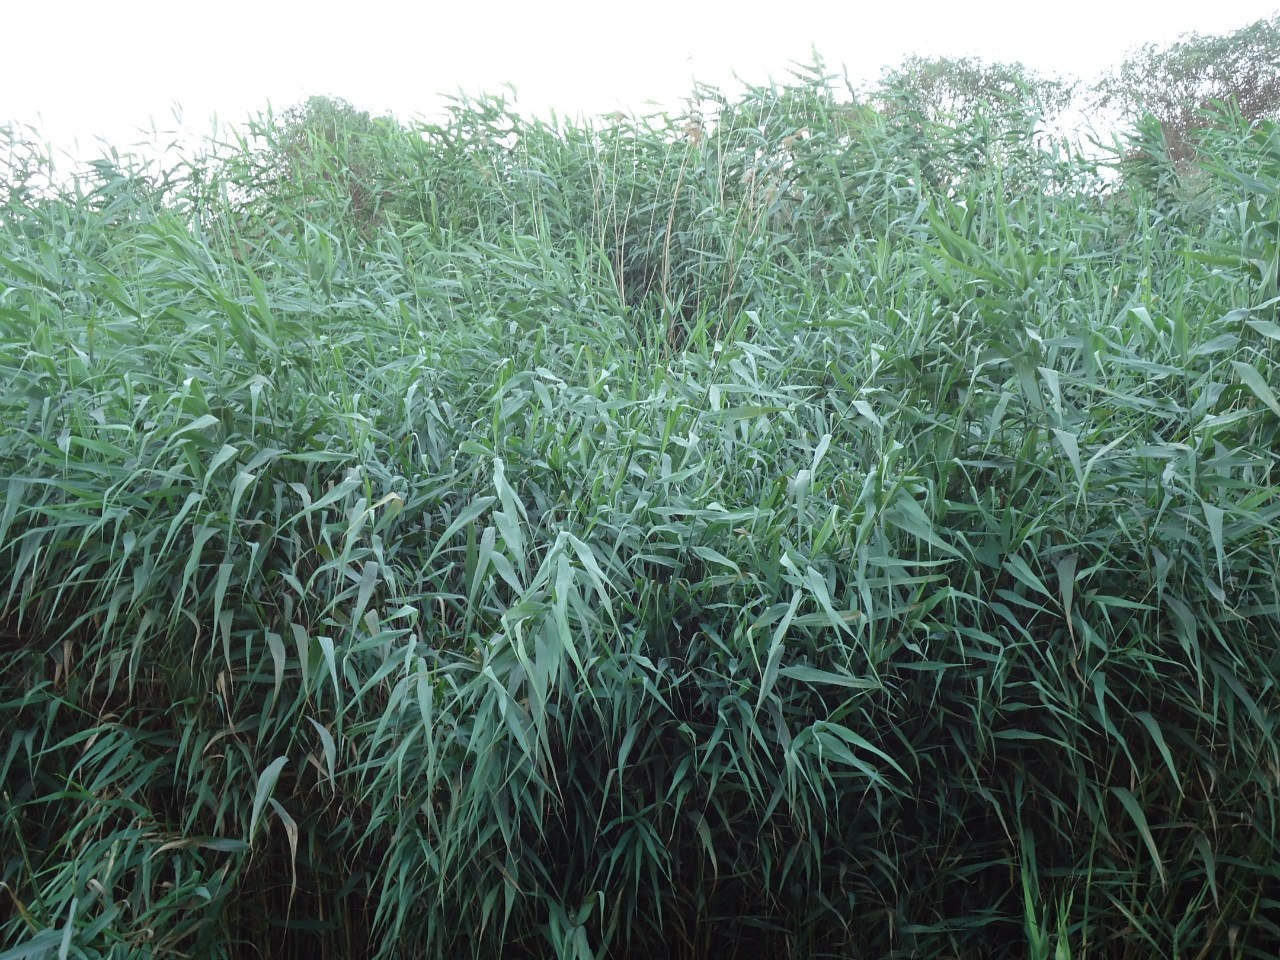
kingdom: Plantae
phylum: Tracheophyta
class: Liliopsida
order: Poales
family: Poaceae
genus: Phragmites
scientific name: Phragmites australis
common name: Common reed
